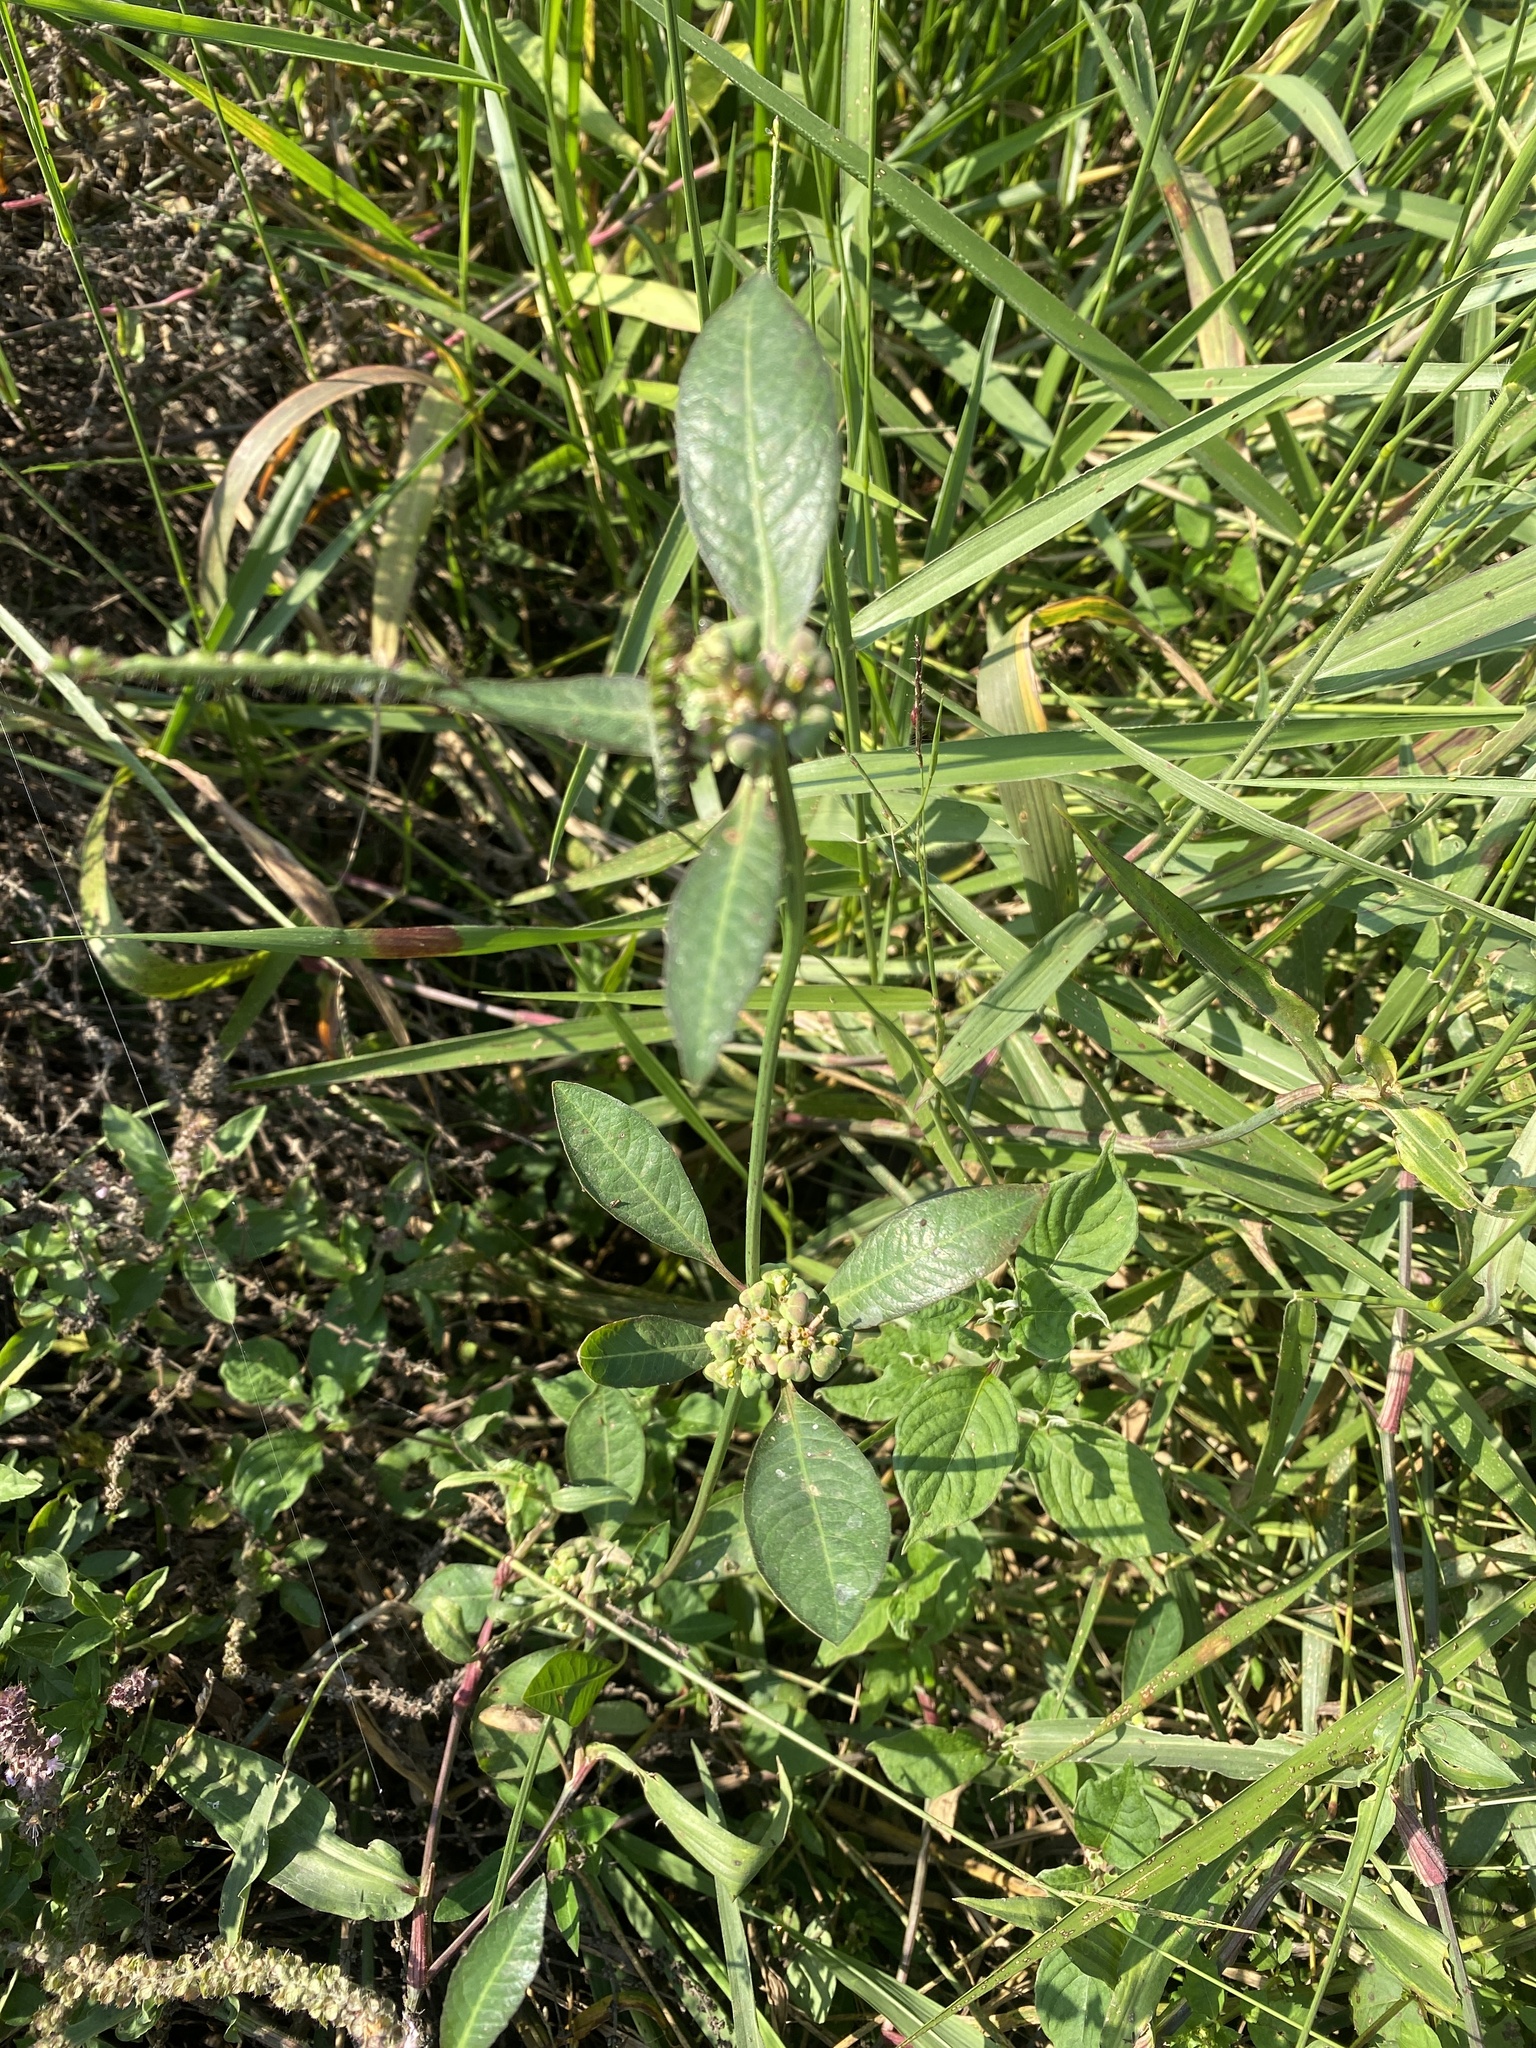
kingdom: Plantae
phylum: Tracheophyta
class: Magnoliopsida
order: Malpighiales
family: Euphorbiaceae
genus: Euphorbia
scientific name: Euphorbia heterophylla
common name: Mexican fireplant
